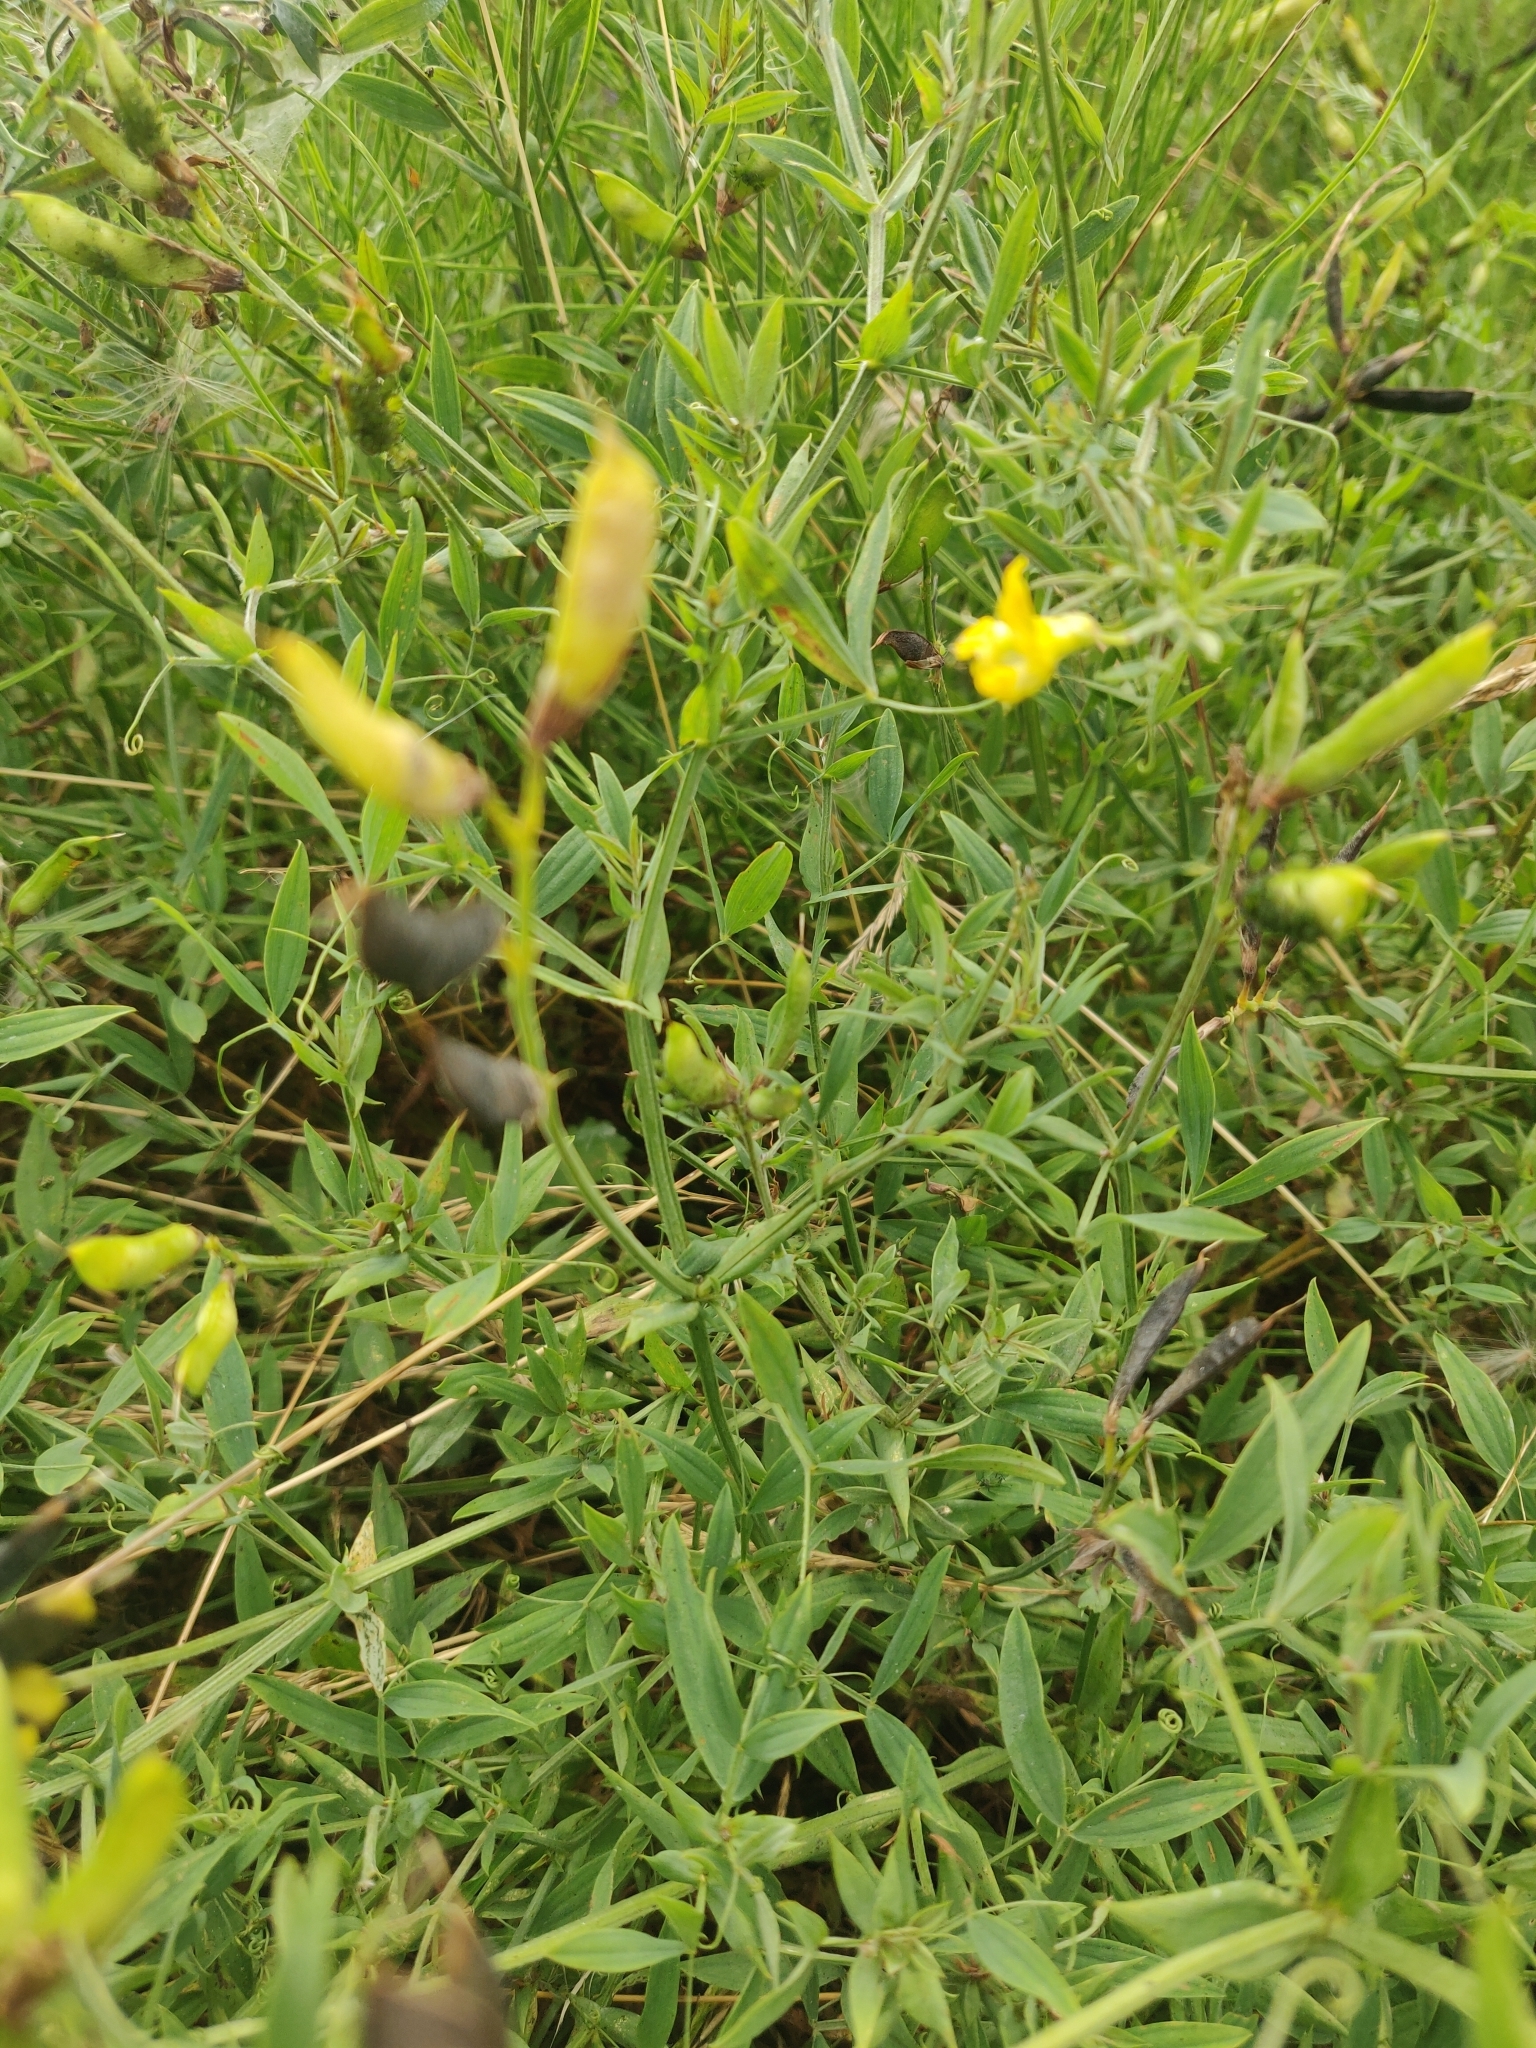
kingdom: Plantae
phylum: Tracheophyta
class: Magnoliopsida
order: Fabales
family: Fabaceae
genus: Lathyrus
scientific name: Lathyrus pratensis
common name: Meadow vetchling
